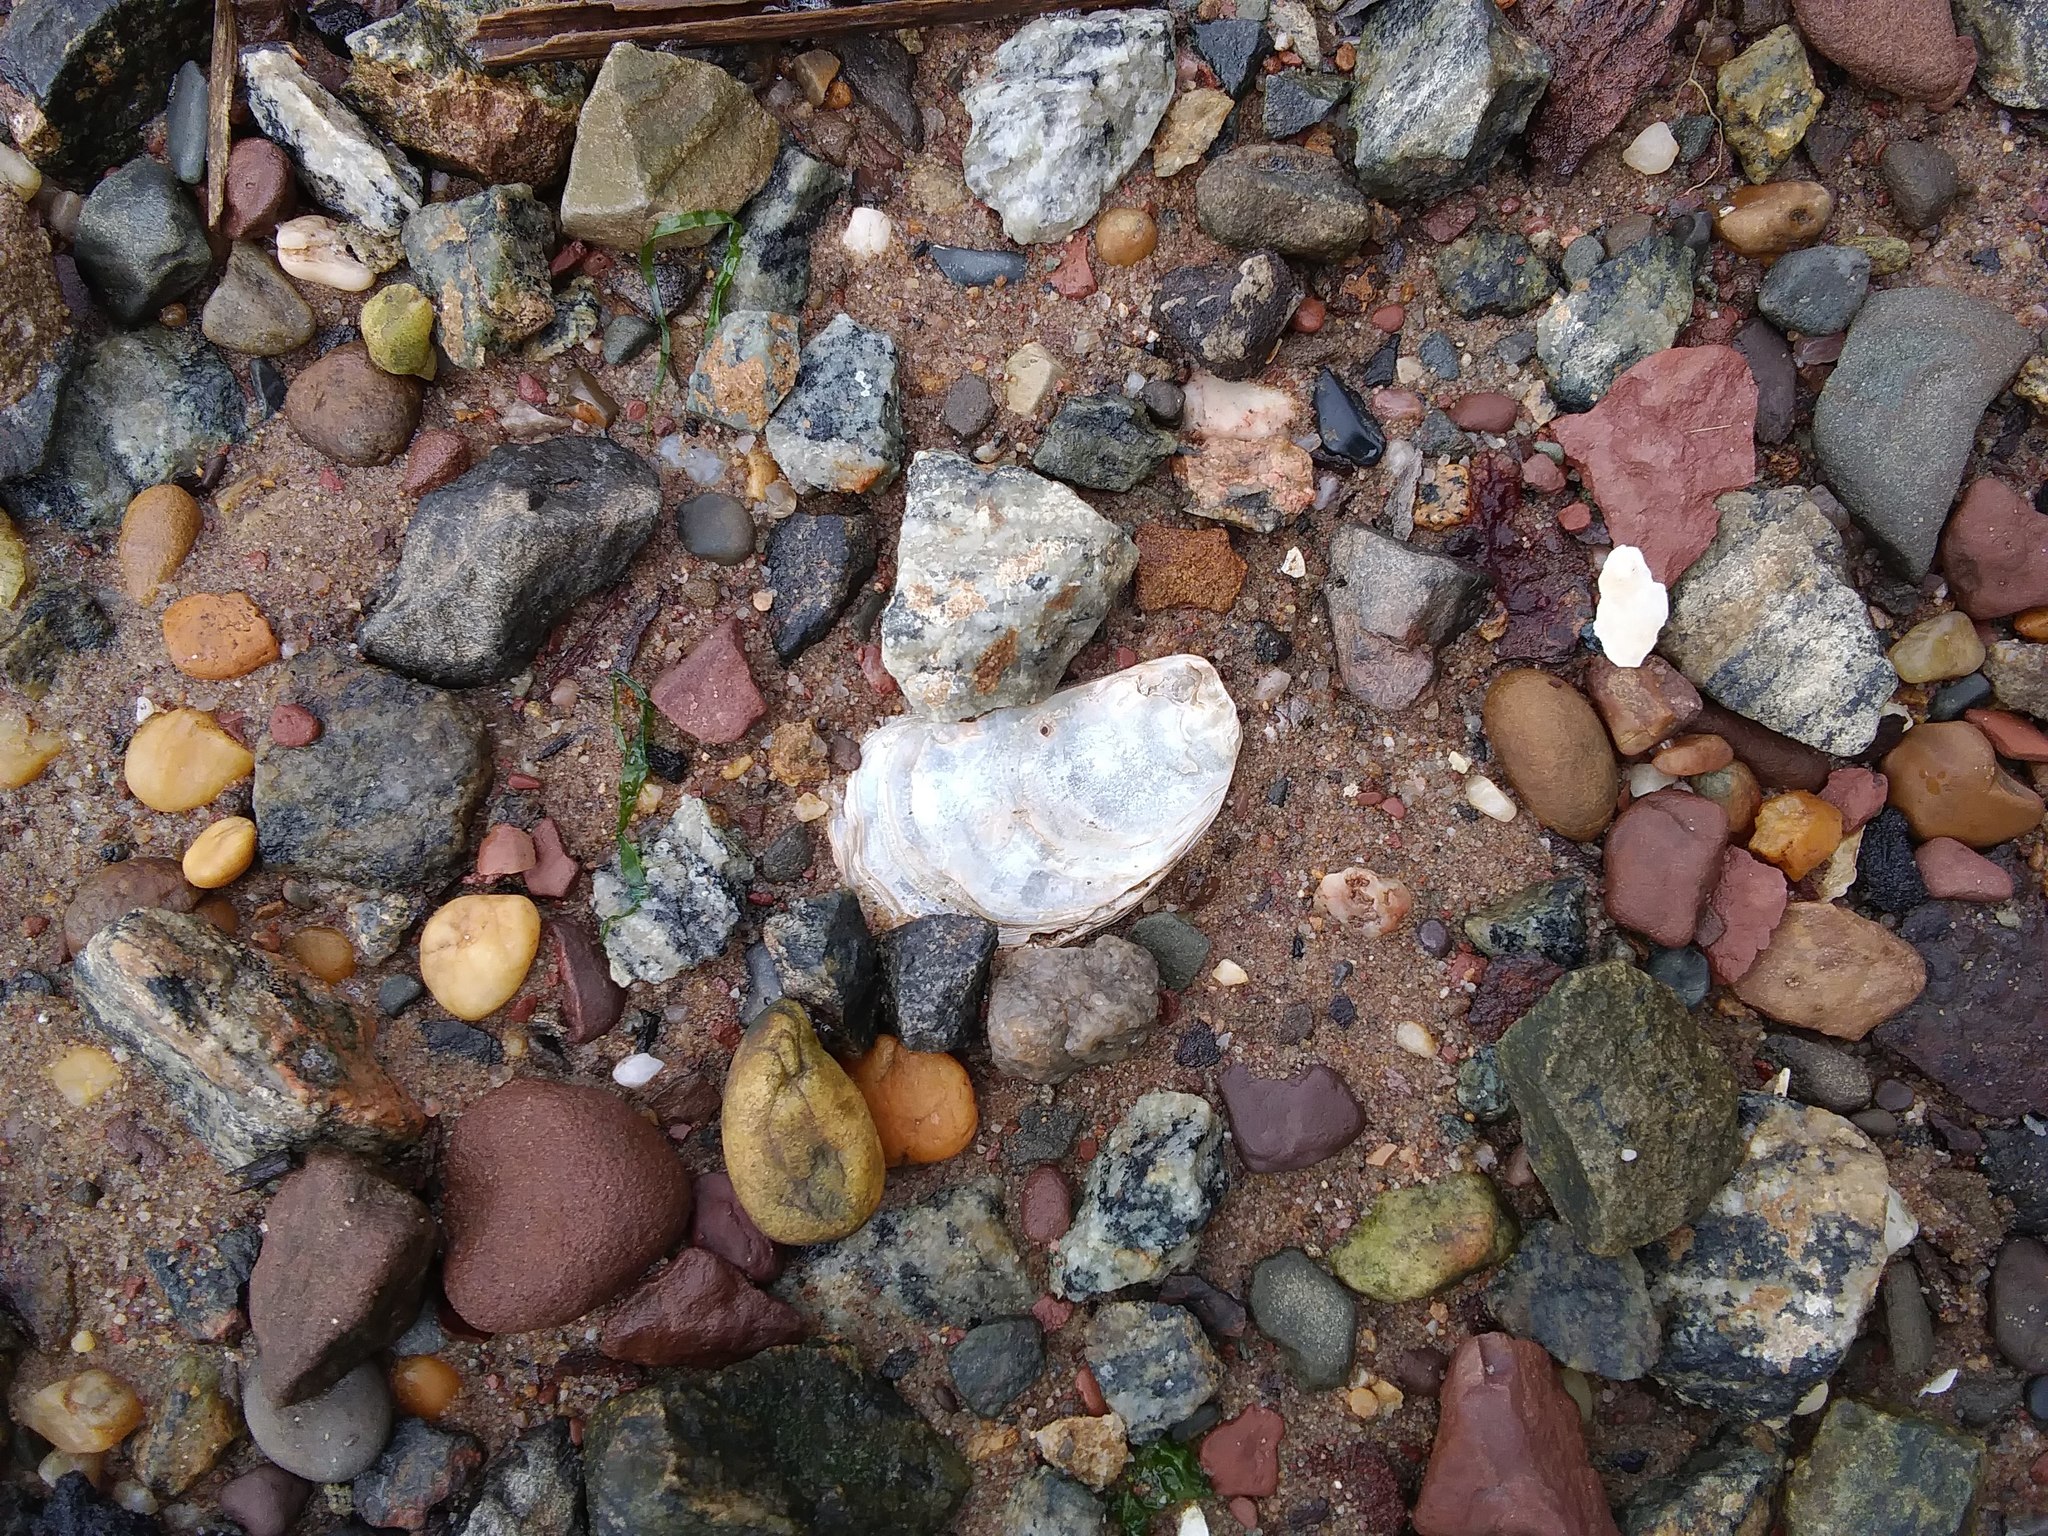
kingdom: Animalia
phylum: Mollusca
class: Bivalvia
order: Ostreida
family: Ostreidae
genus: Crassostrea
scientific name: Crassostrea virginica
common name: American oyster
